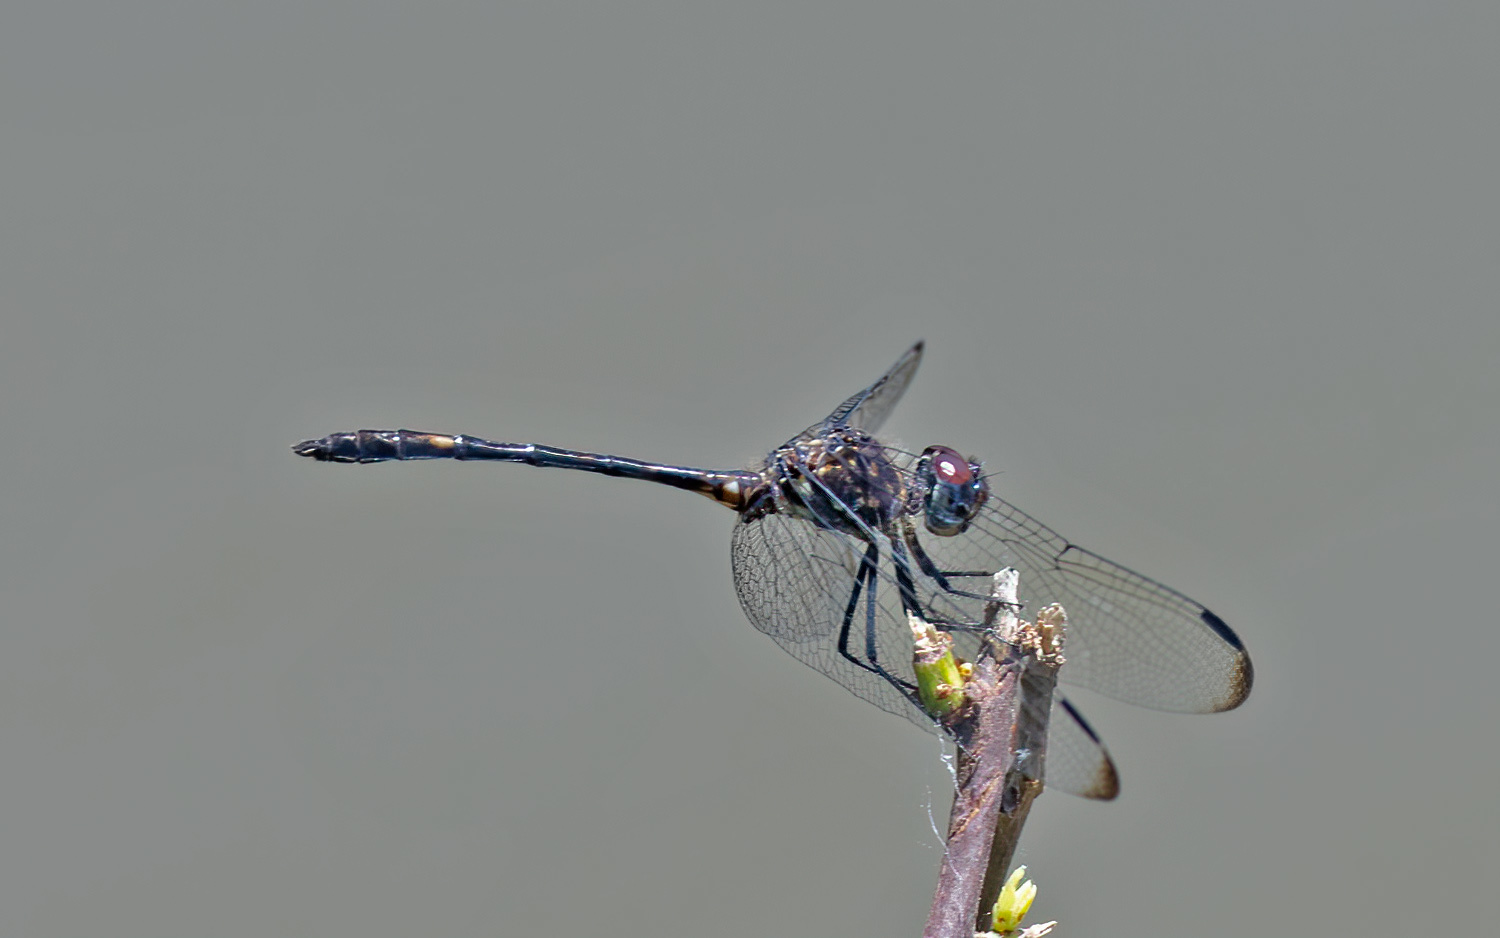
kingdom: Animalia
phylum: Arthropoda
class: Insecta
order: Odonata
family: Libellulidae
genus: Dythemis
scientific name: Dythemis velox
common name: Swift setwing
